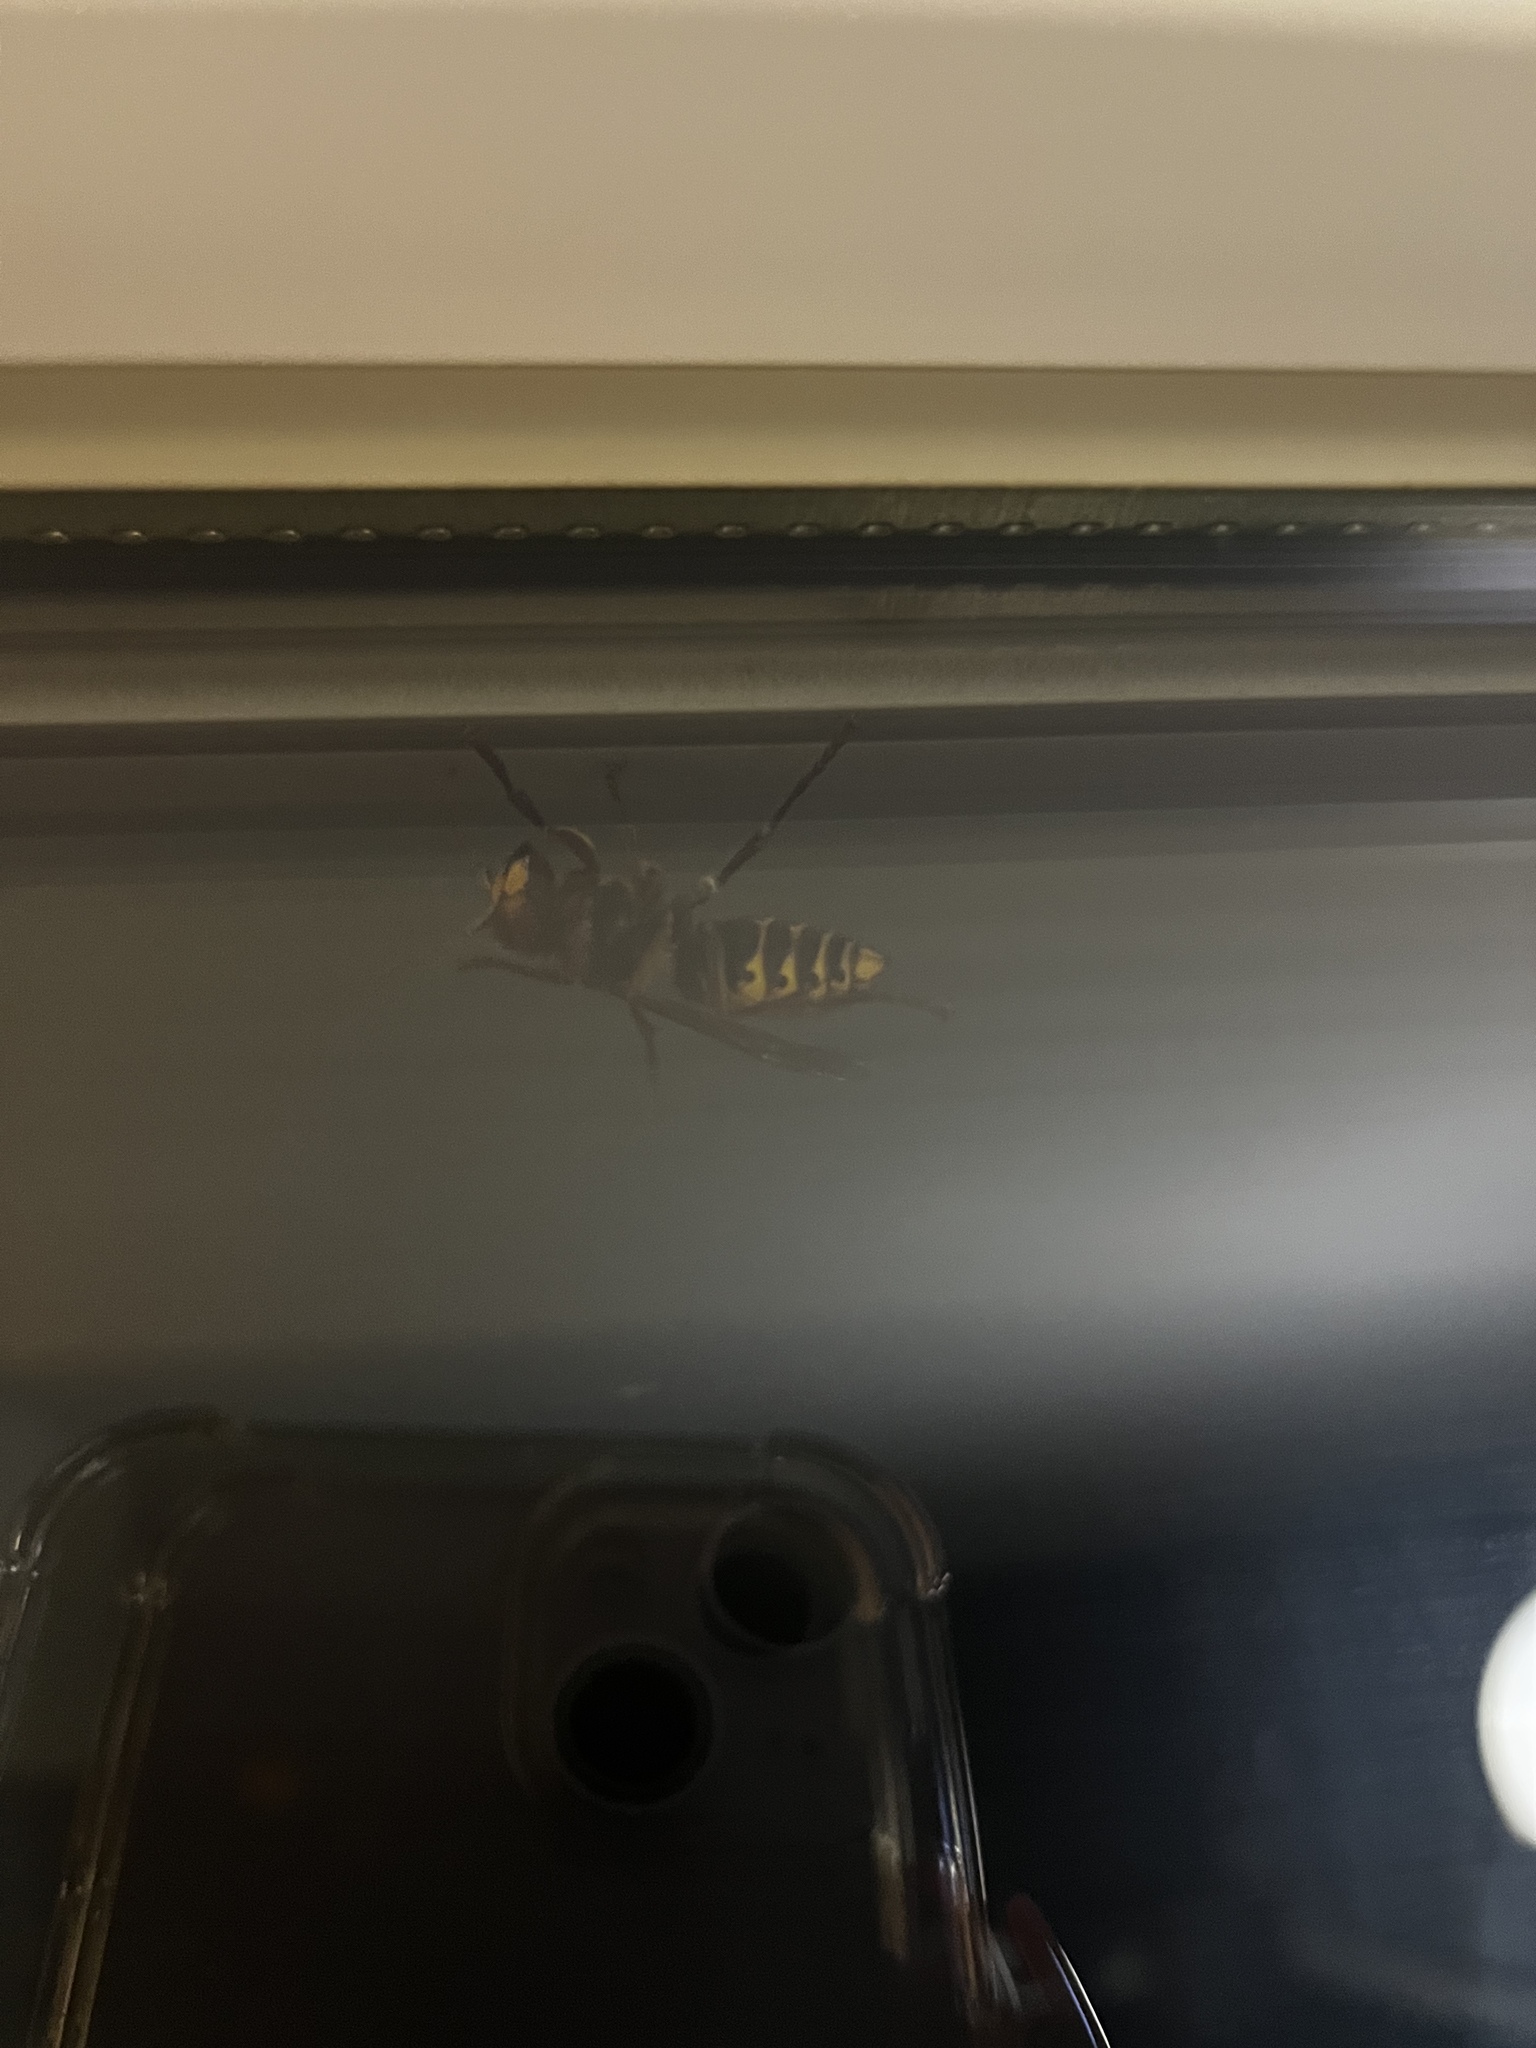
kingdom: Animalia
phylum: Arthropoda
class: Insecta
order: Hymenoptera
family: Vespidae
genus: Vespa
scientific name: Vespa crabro
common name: Hornet
